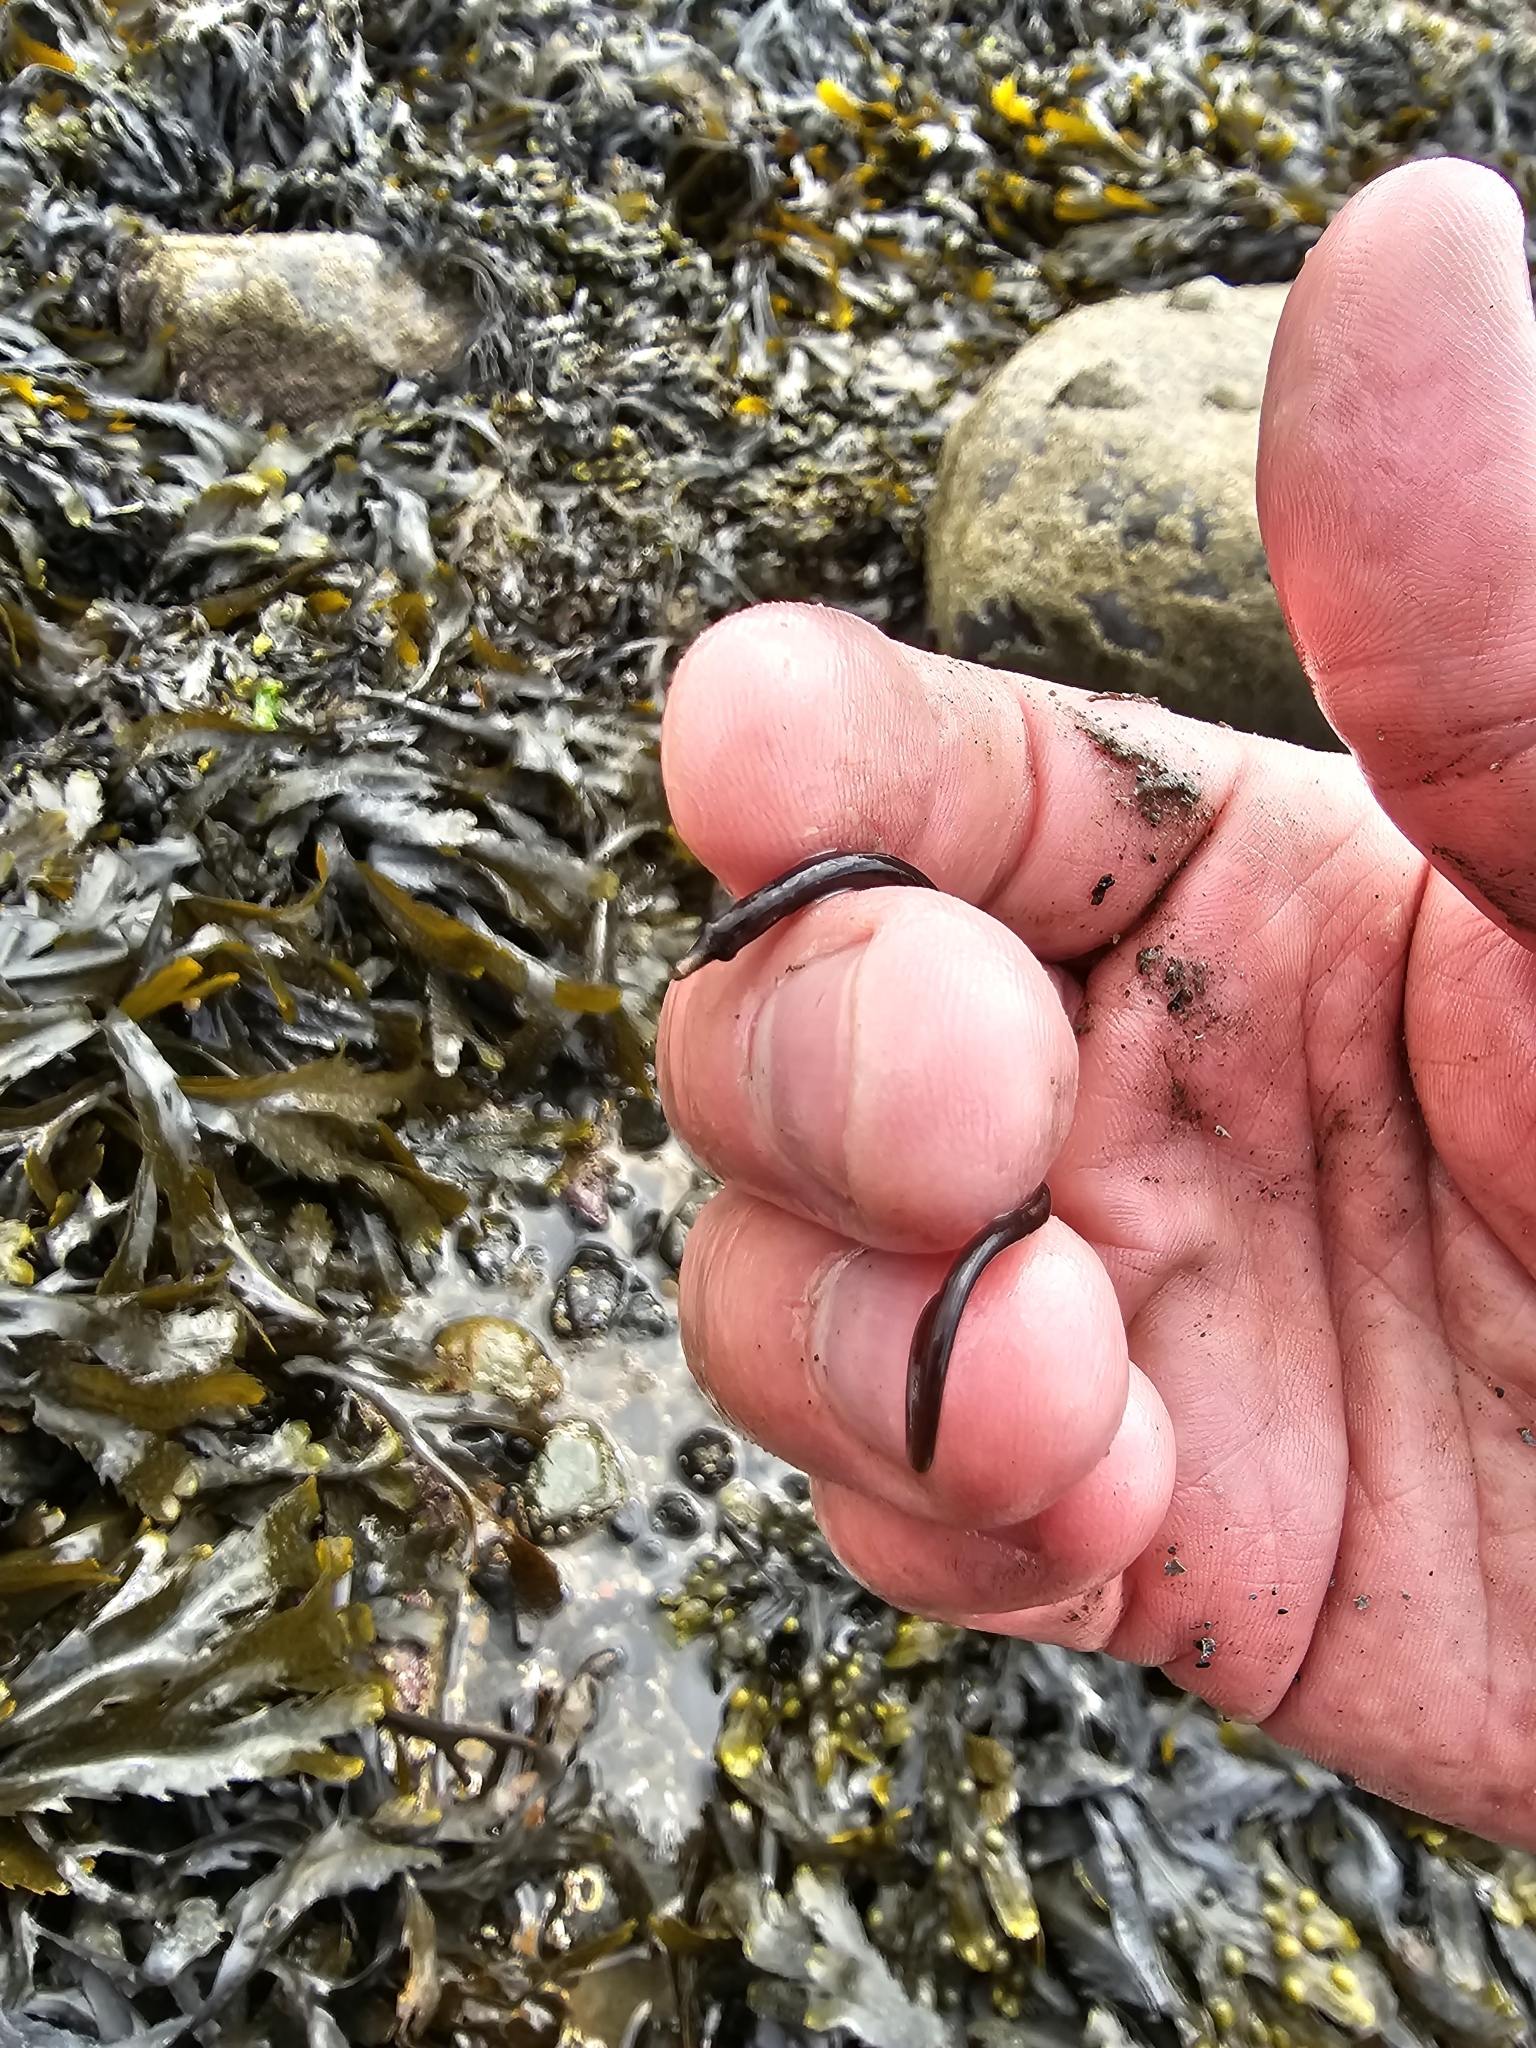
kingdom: Animalia
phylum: Chordata
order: Syngnathiformes
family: Syngnathidae
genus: Nerophis
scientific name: Nerophis lumbriciformis
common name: Worm pipefish
